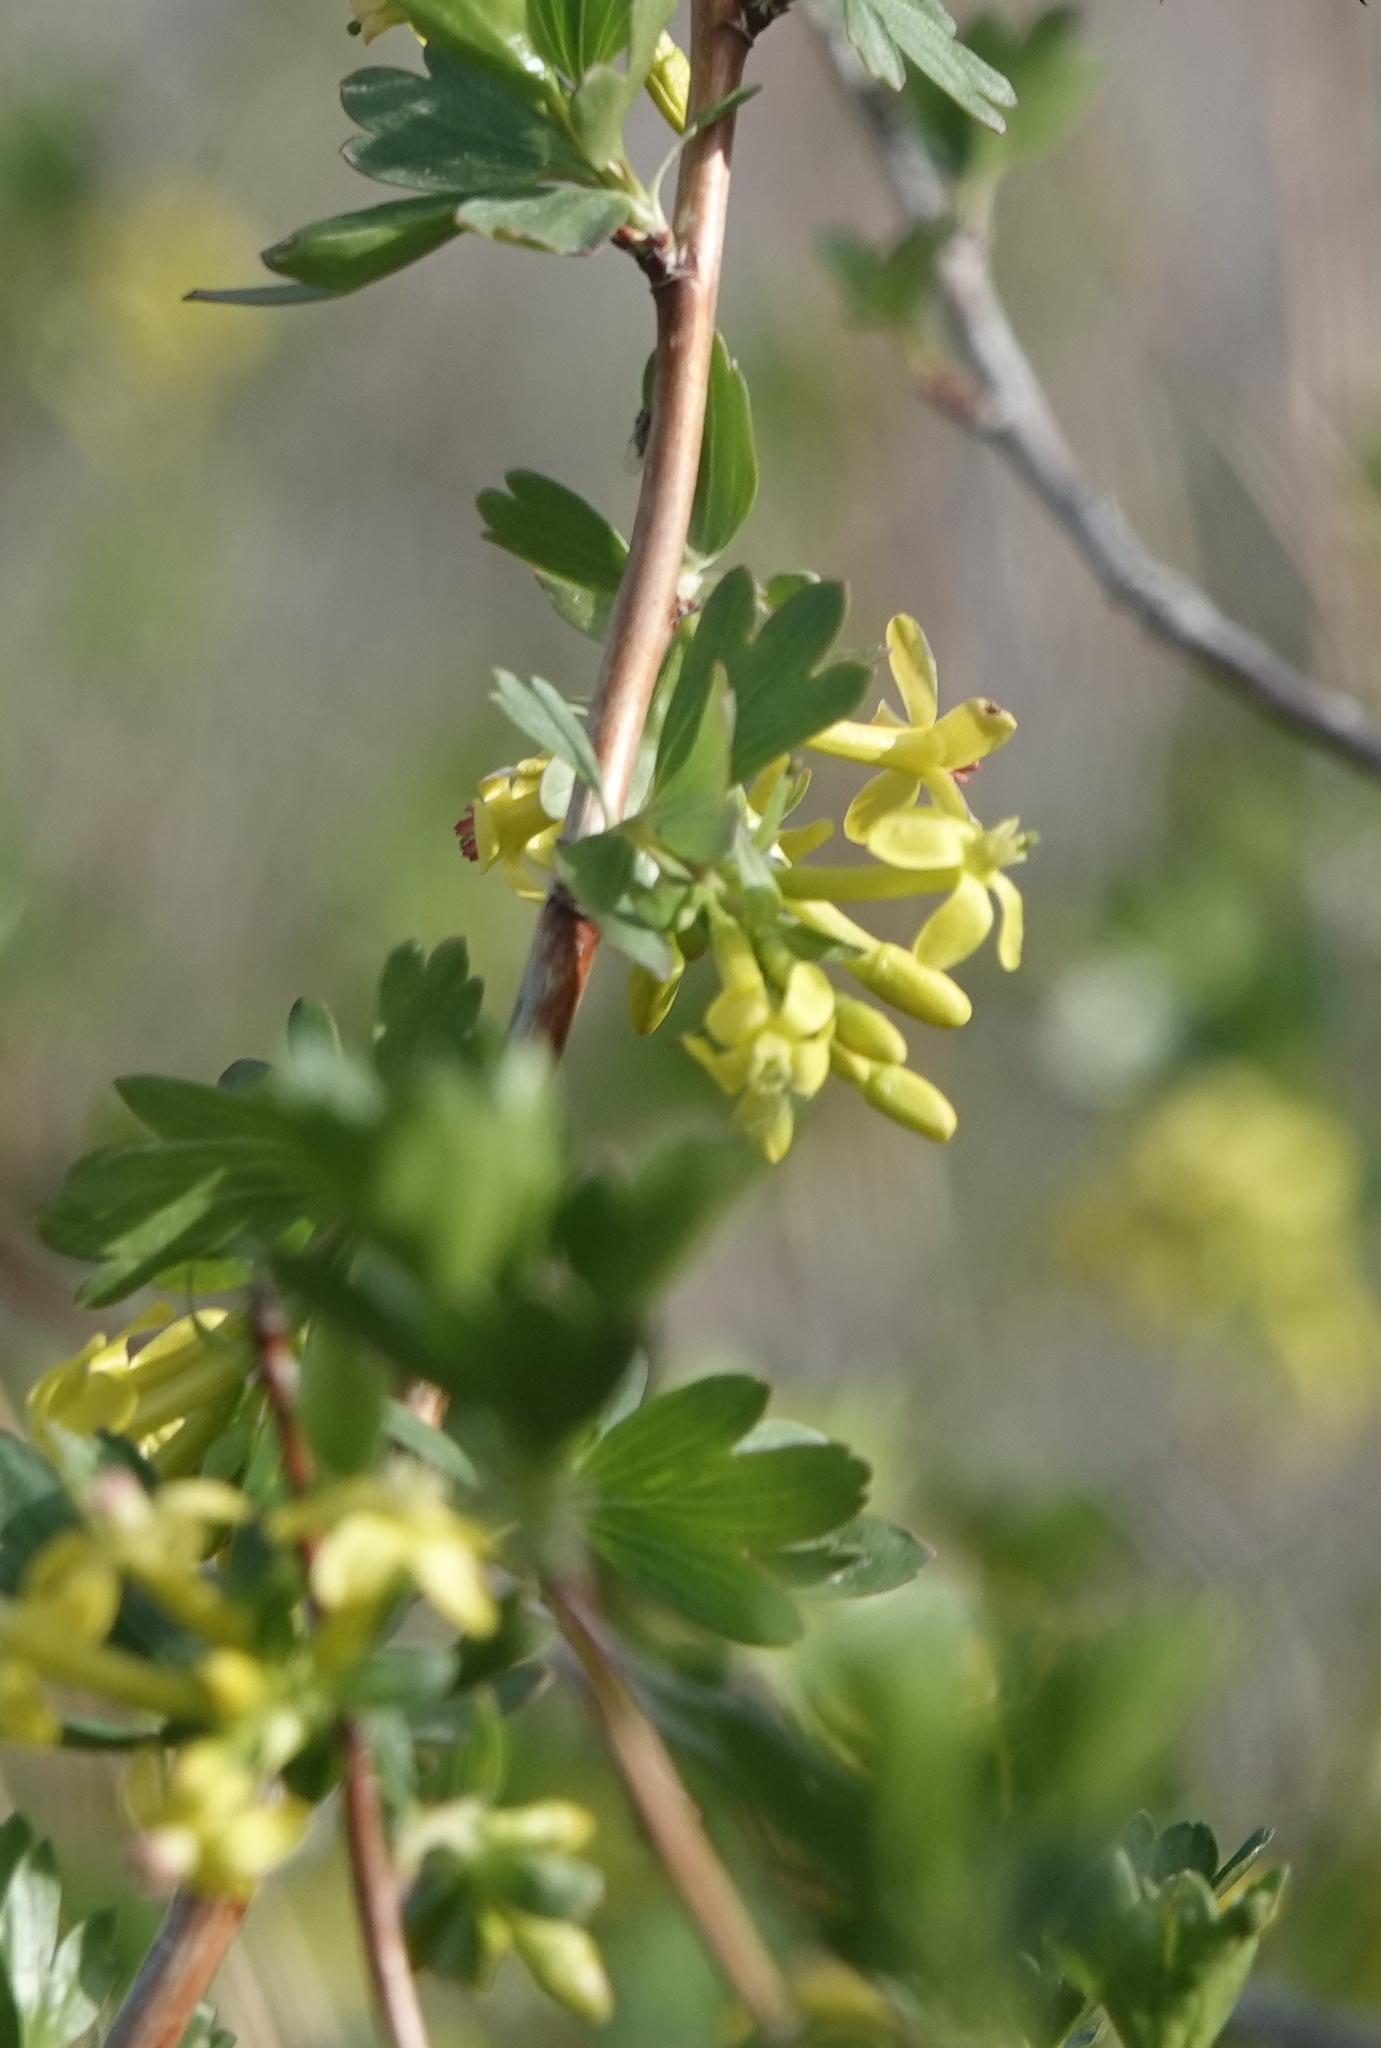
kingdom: Plantae
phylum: Tracheophyta
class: Magnoliopsida
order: Saxifragales
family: Grossulariaceae
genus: Ribes
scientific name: Ribes aureum
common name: Golden currant
